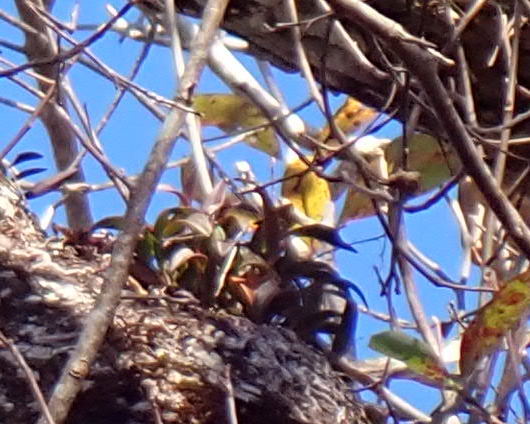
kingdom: Plantae
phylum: Tracheophyta
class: Liliopsida
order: Asparagales
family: Orchidaceae
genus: Epidendrum
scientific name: Epidendrum conopseum
